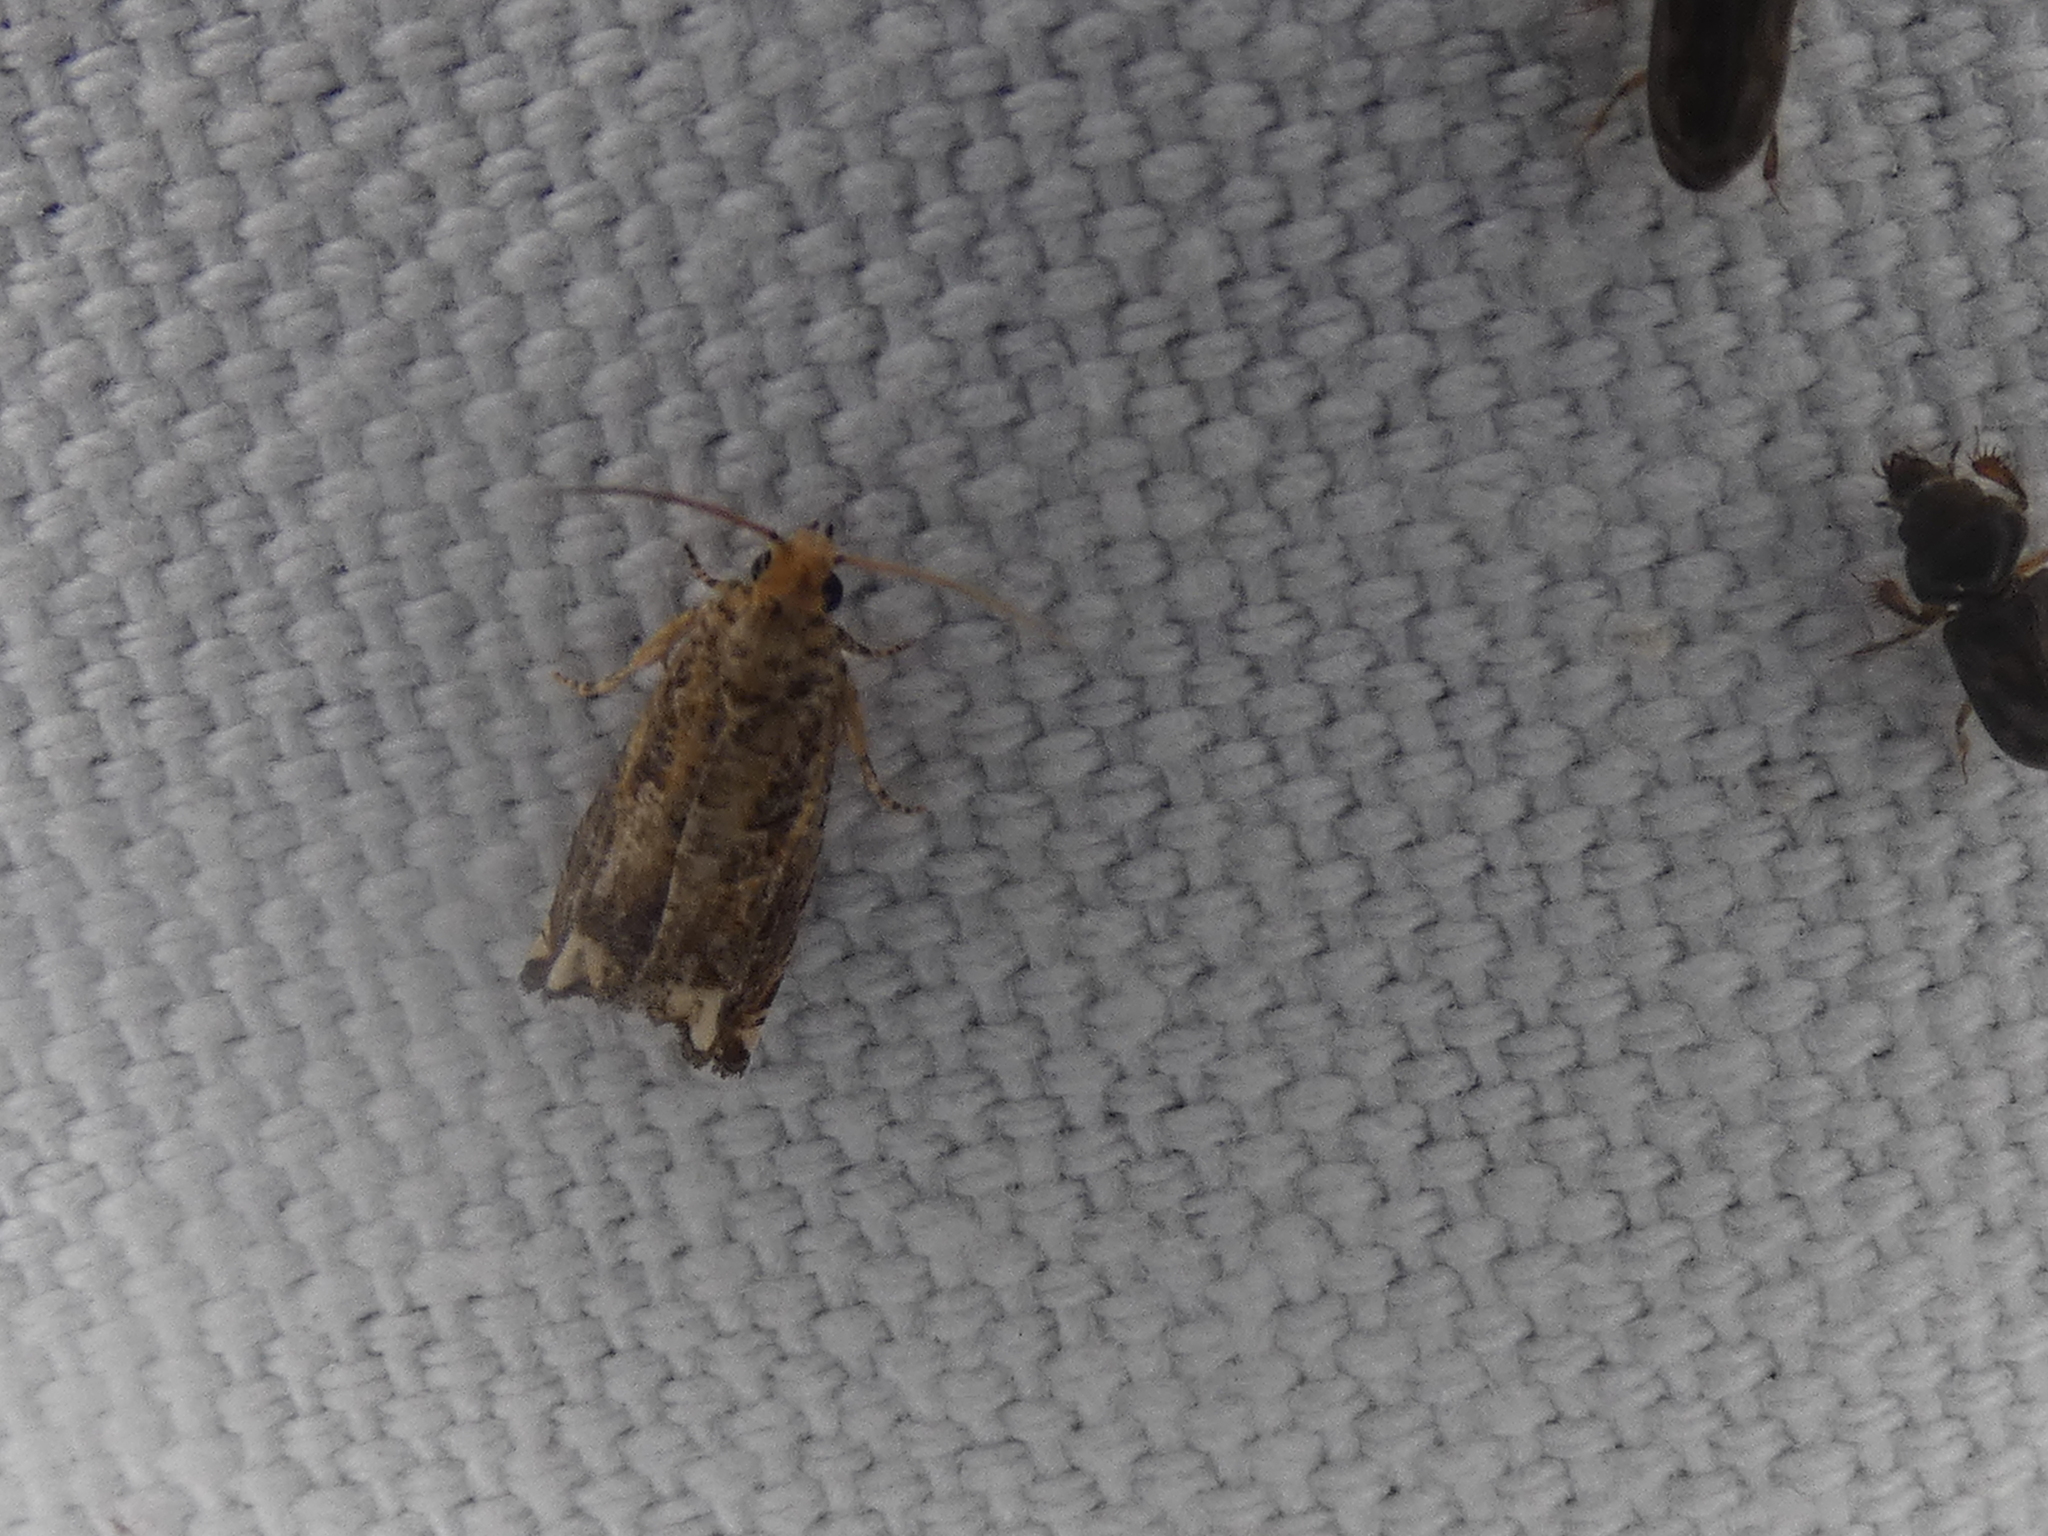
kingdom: Animalia
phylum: Arthropoda
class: Insecta
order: Lepidoptera
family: Tortricidae
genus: Epiblema
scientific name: Epiblema abruptana
